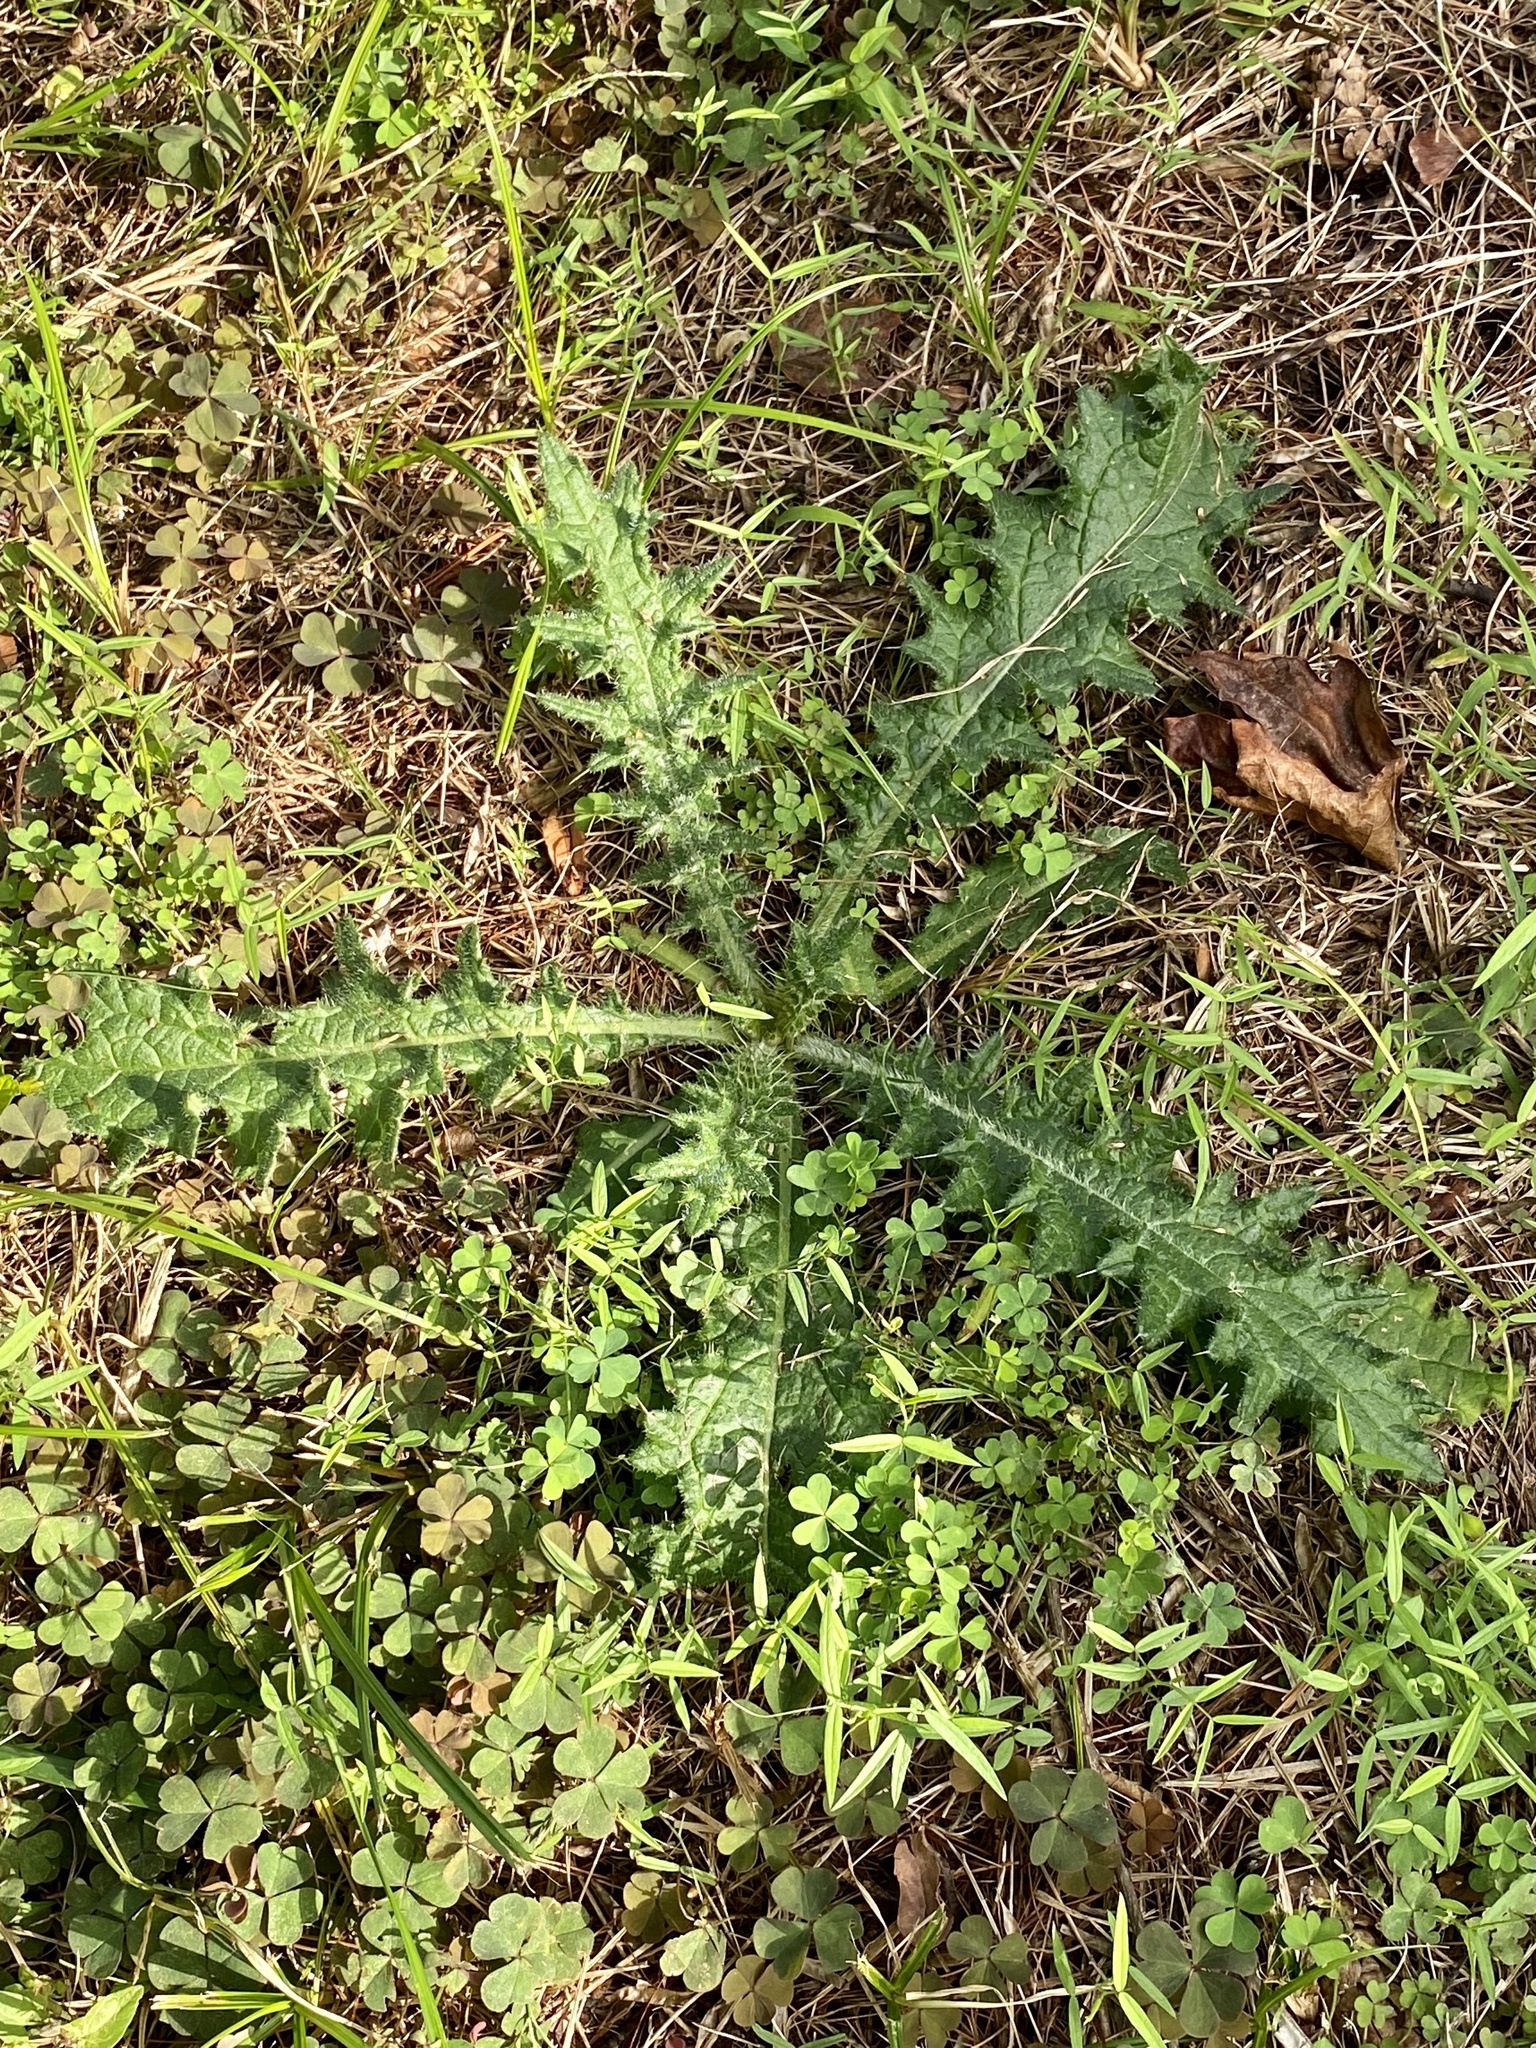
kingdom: Plantae
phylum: Tracheophyta
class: Magnoliopsida
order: Asterales
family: Asteraceae
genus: Cirsium
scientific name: Cirsium vulgare
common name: Bull thistle
